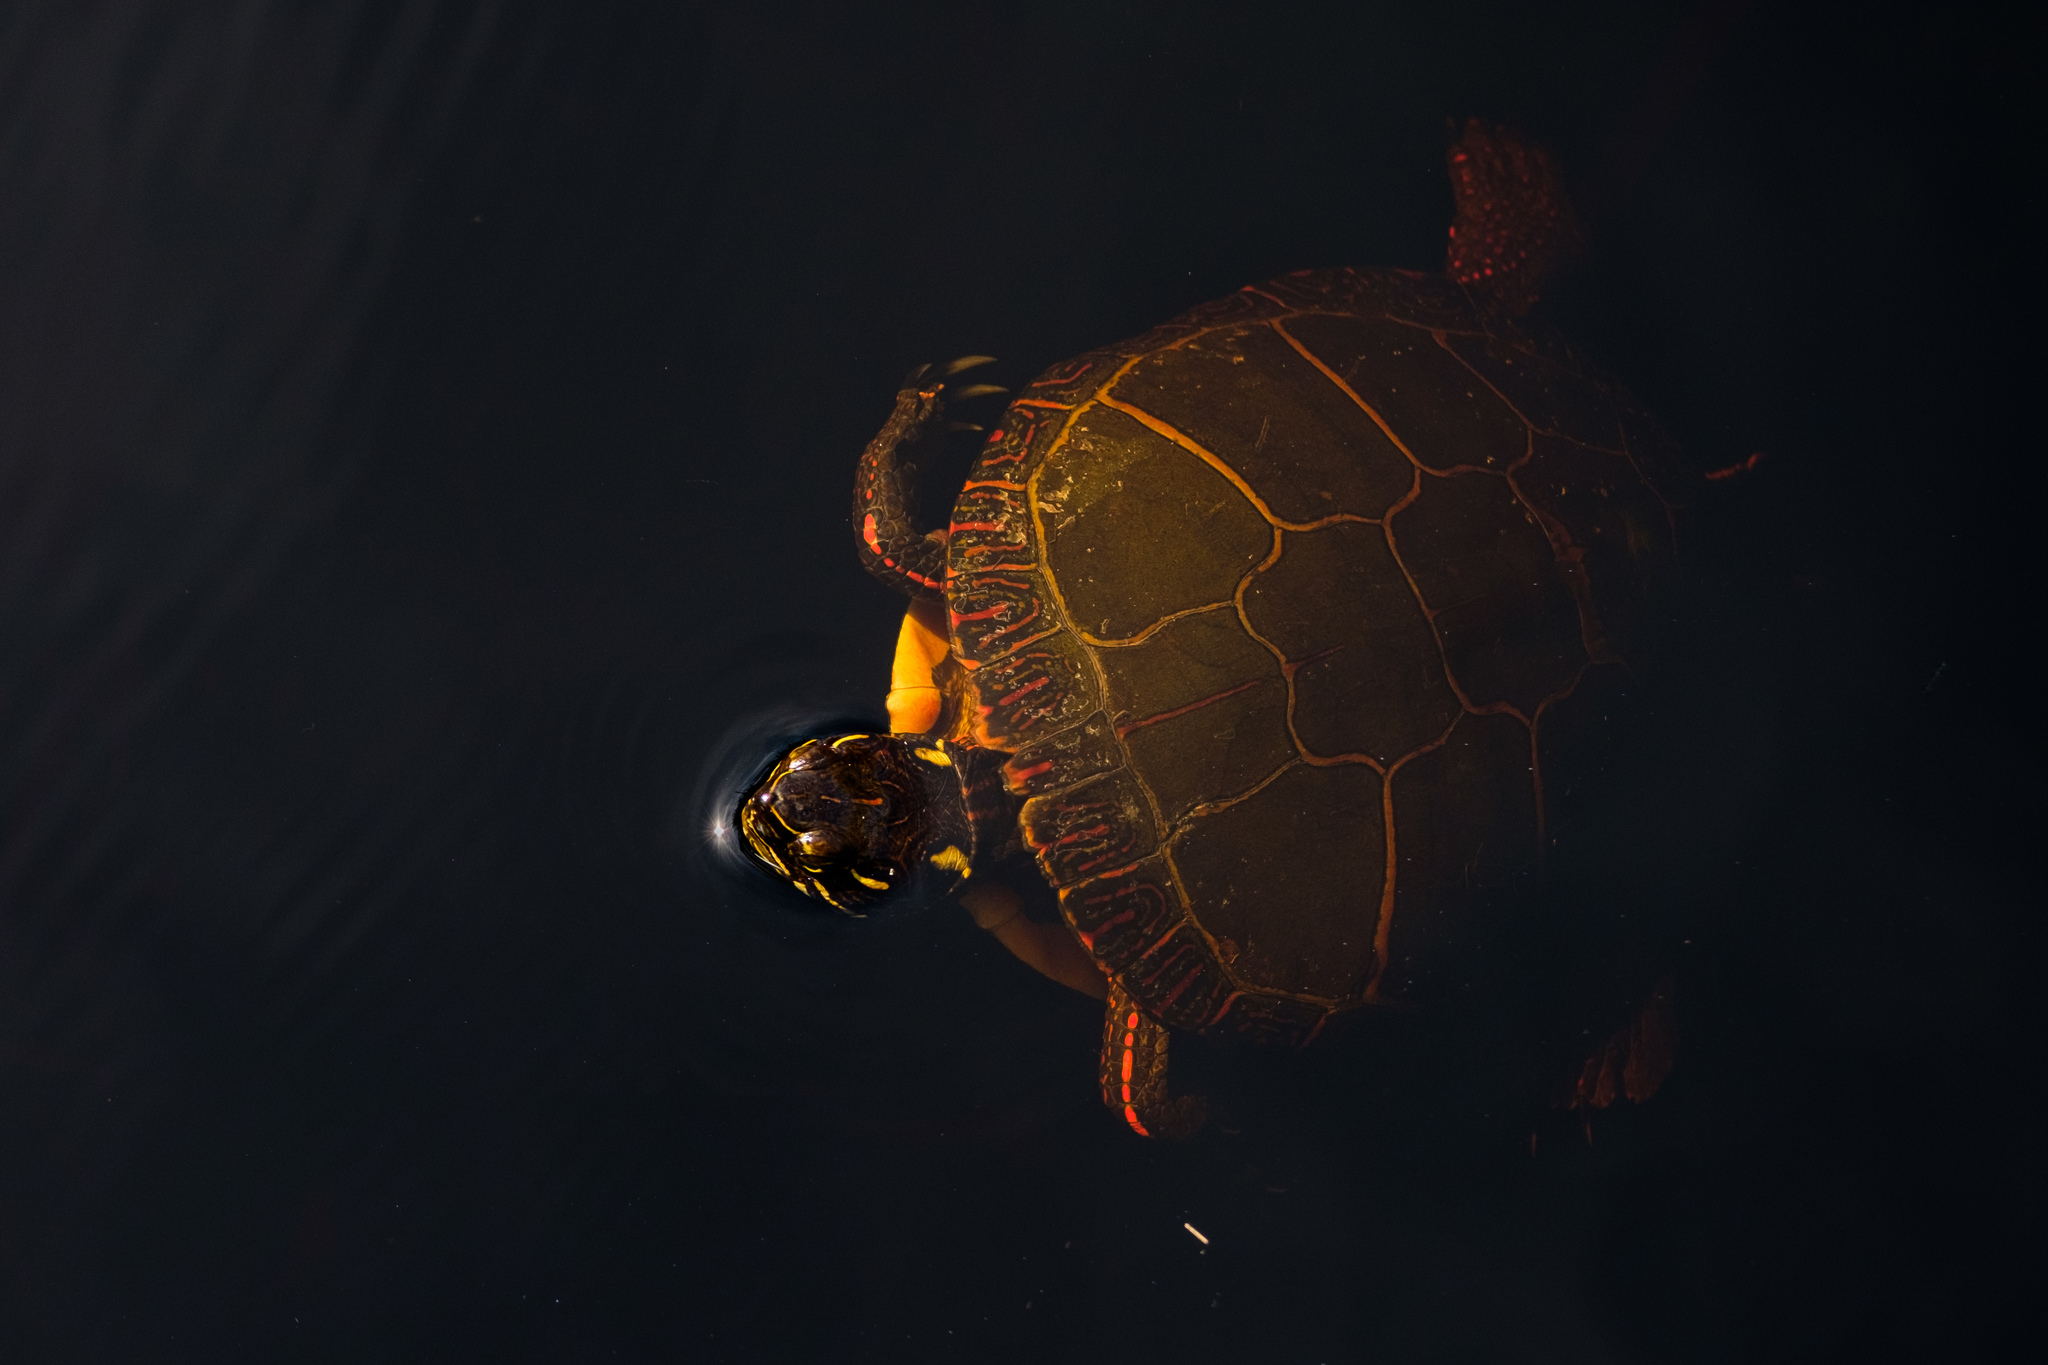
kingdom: Animalia
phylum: Chordata
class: Testudines
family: Emydidae
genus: Chrysemys
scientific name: Chrysemys picta
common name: Painted turtle
